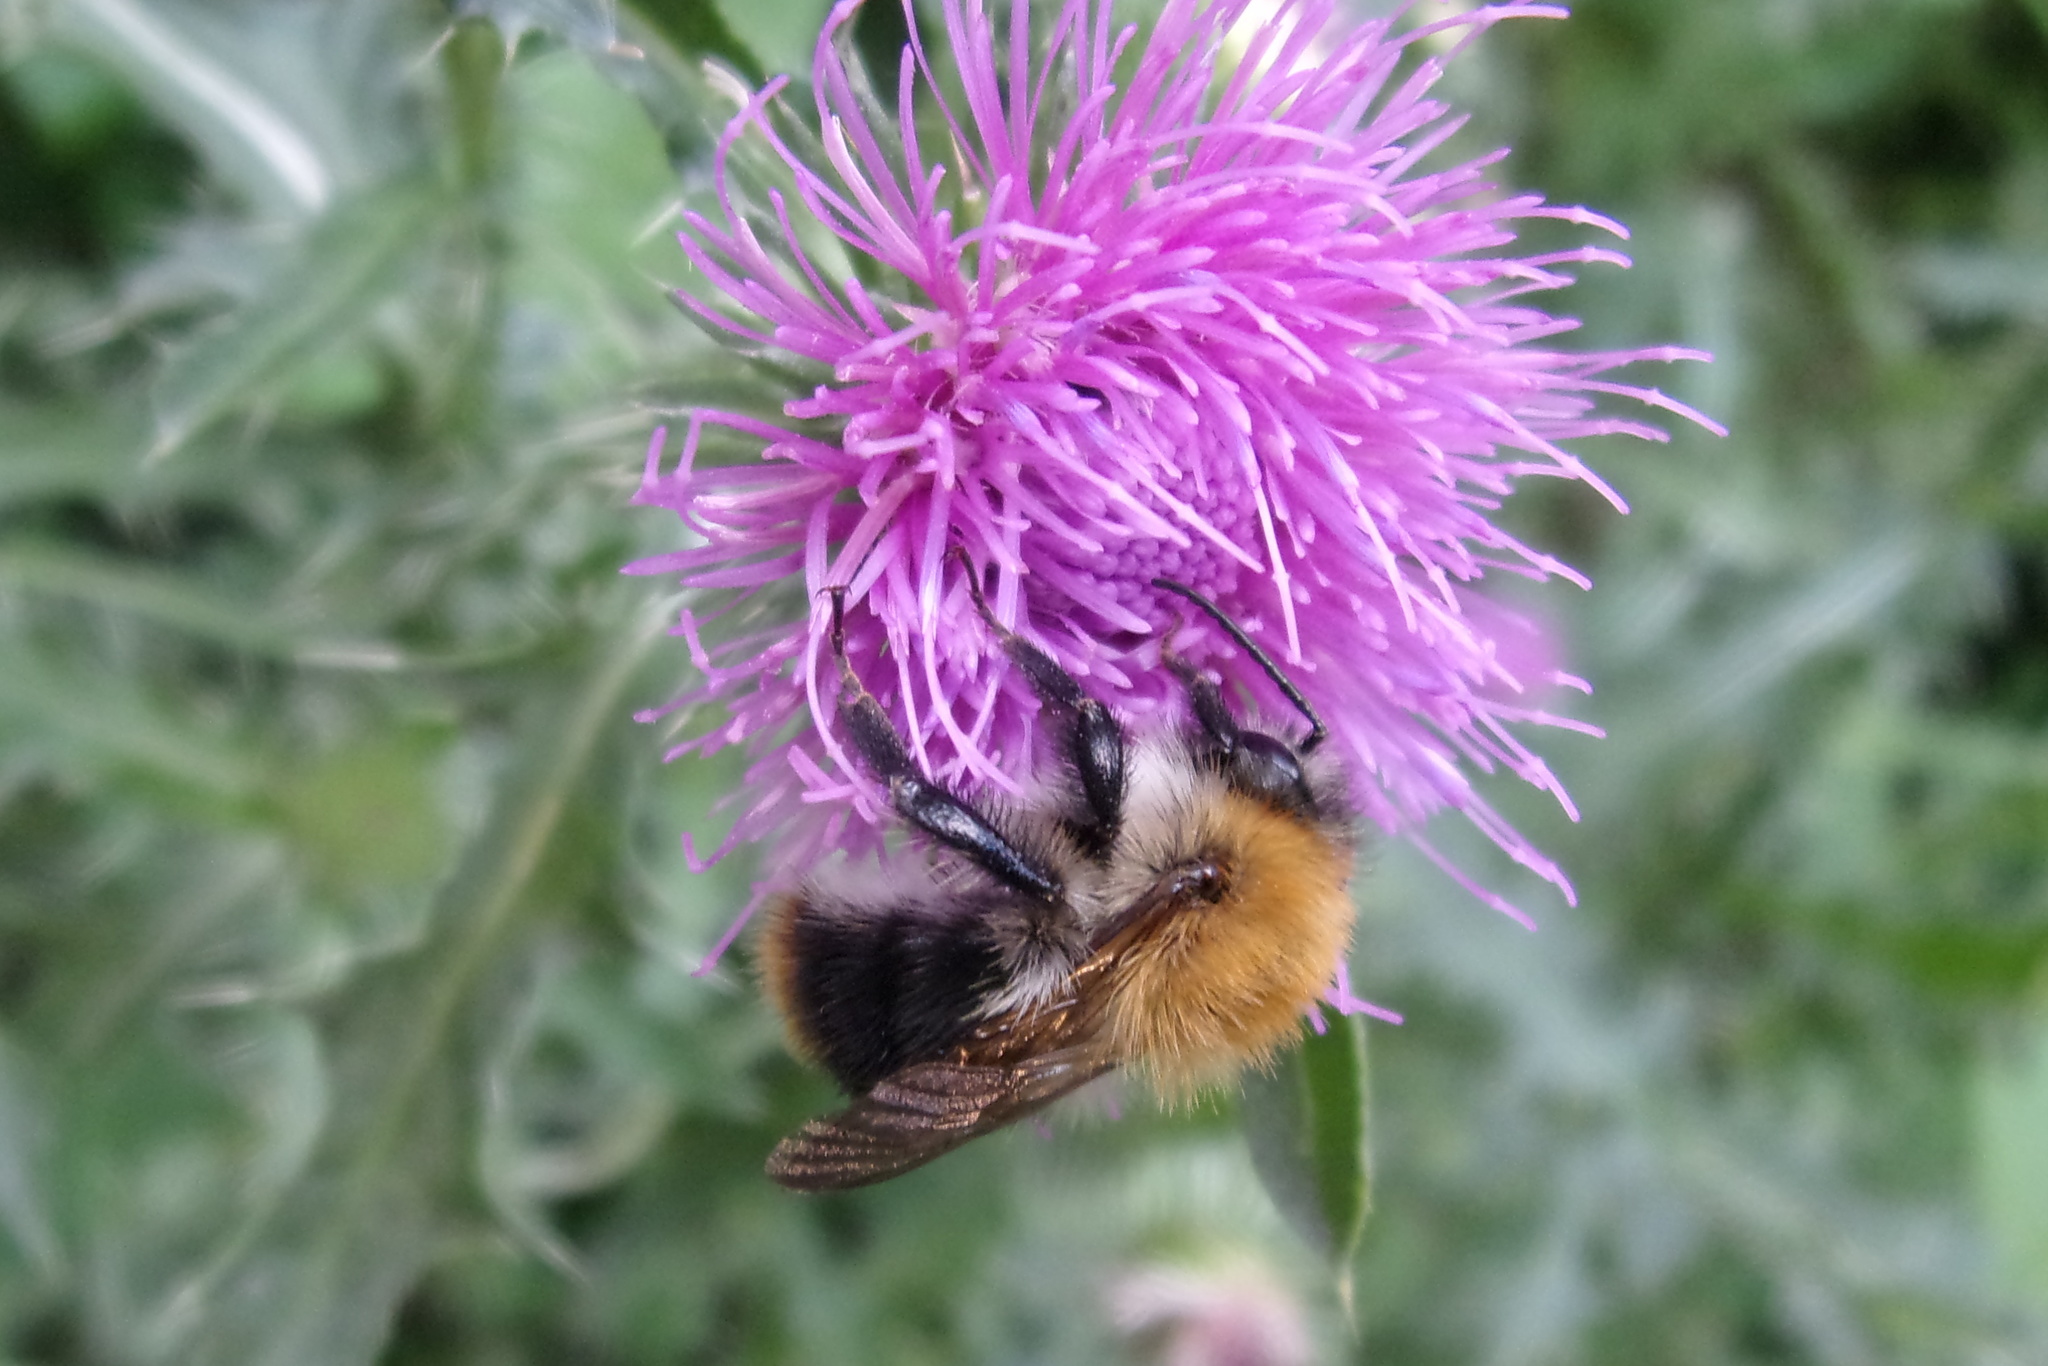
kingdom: Animalia
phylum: Arthropoda
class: Insecta
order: Hymenoptera
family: Apidae
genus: Bombus
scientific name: Bombus pascuorum
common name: Common carder bee
